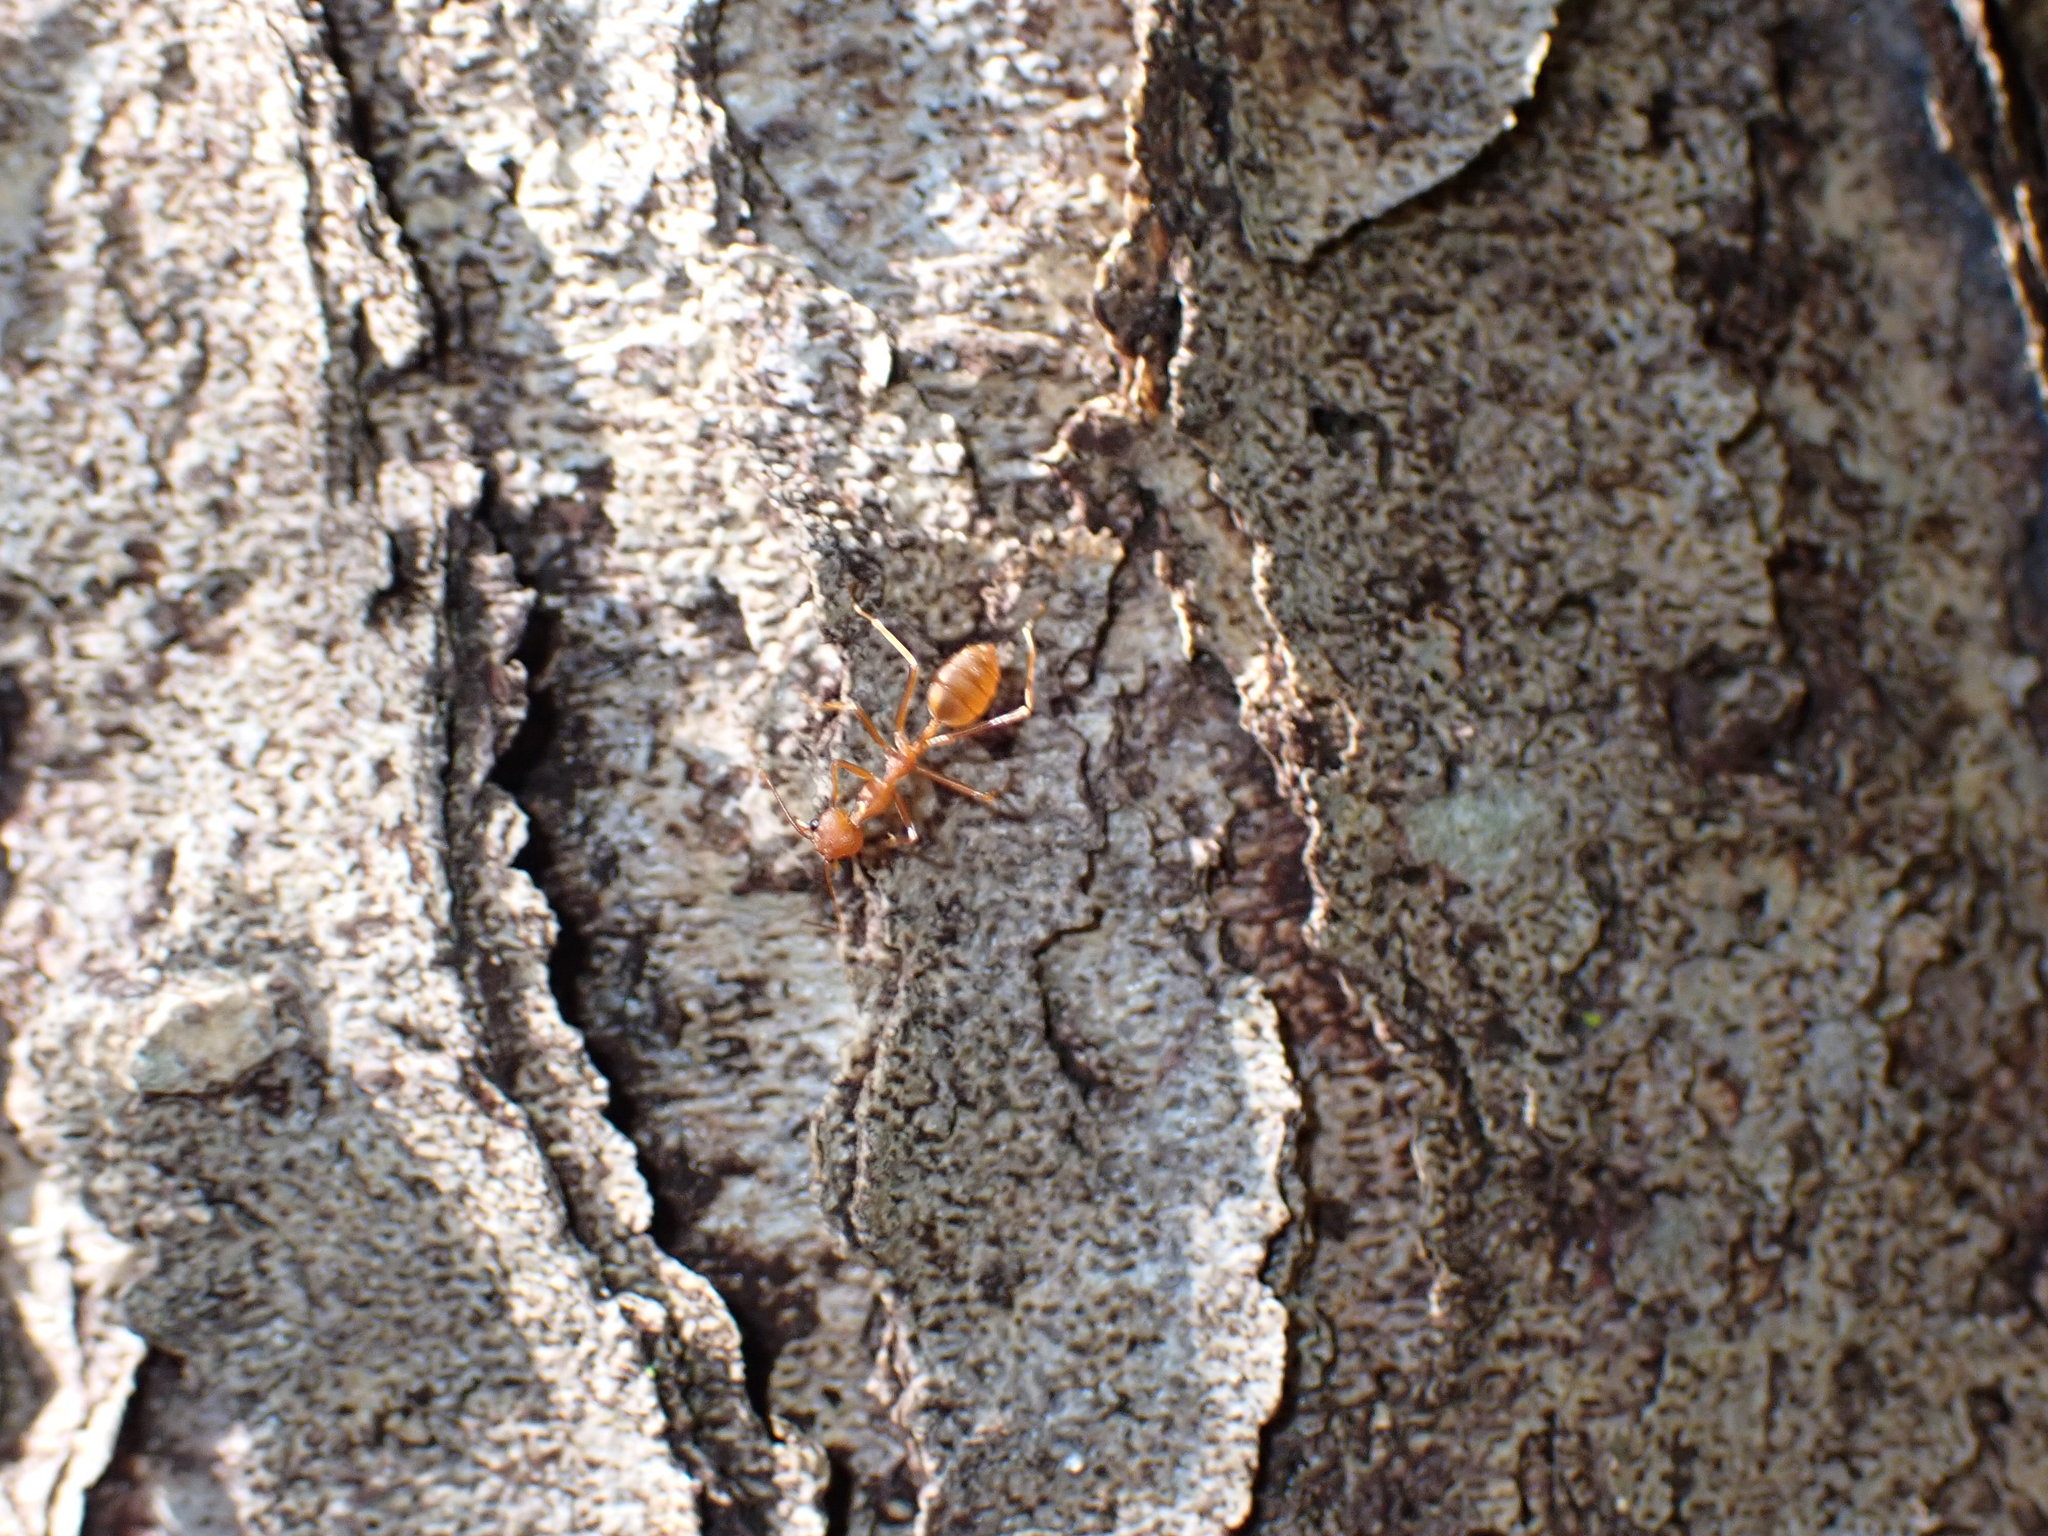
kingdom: Animalia
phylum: Arthropoda
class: Insecta
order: Hymenoptera
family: Formicidae
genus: Oecophylla
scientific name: Oecophylla smaragdina
